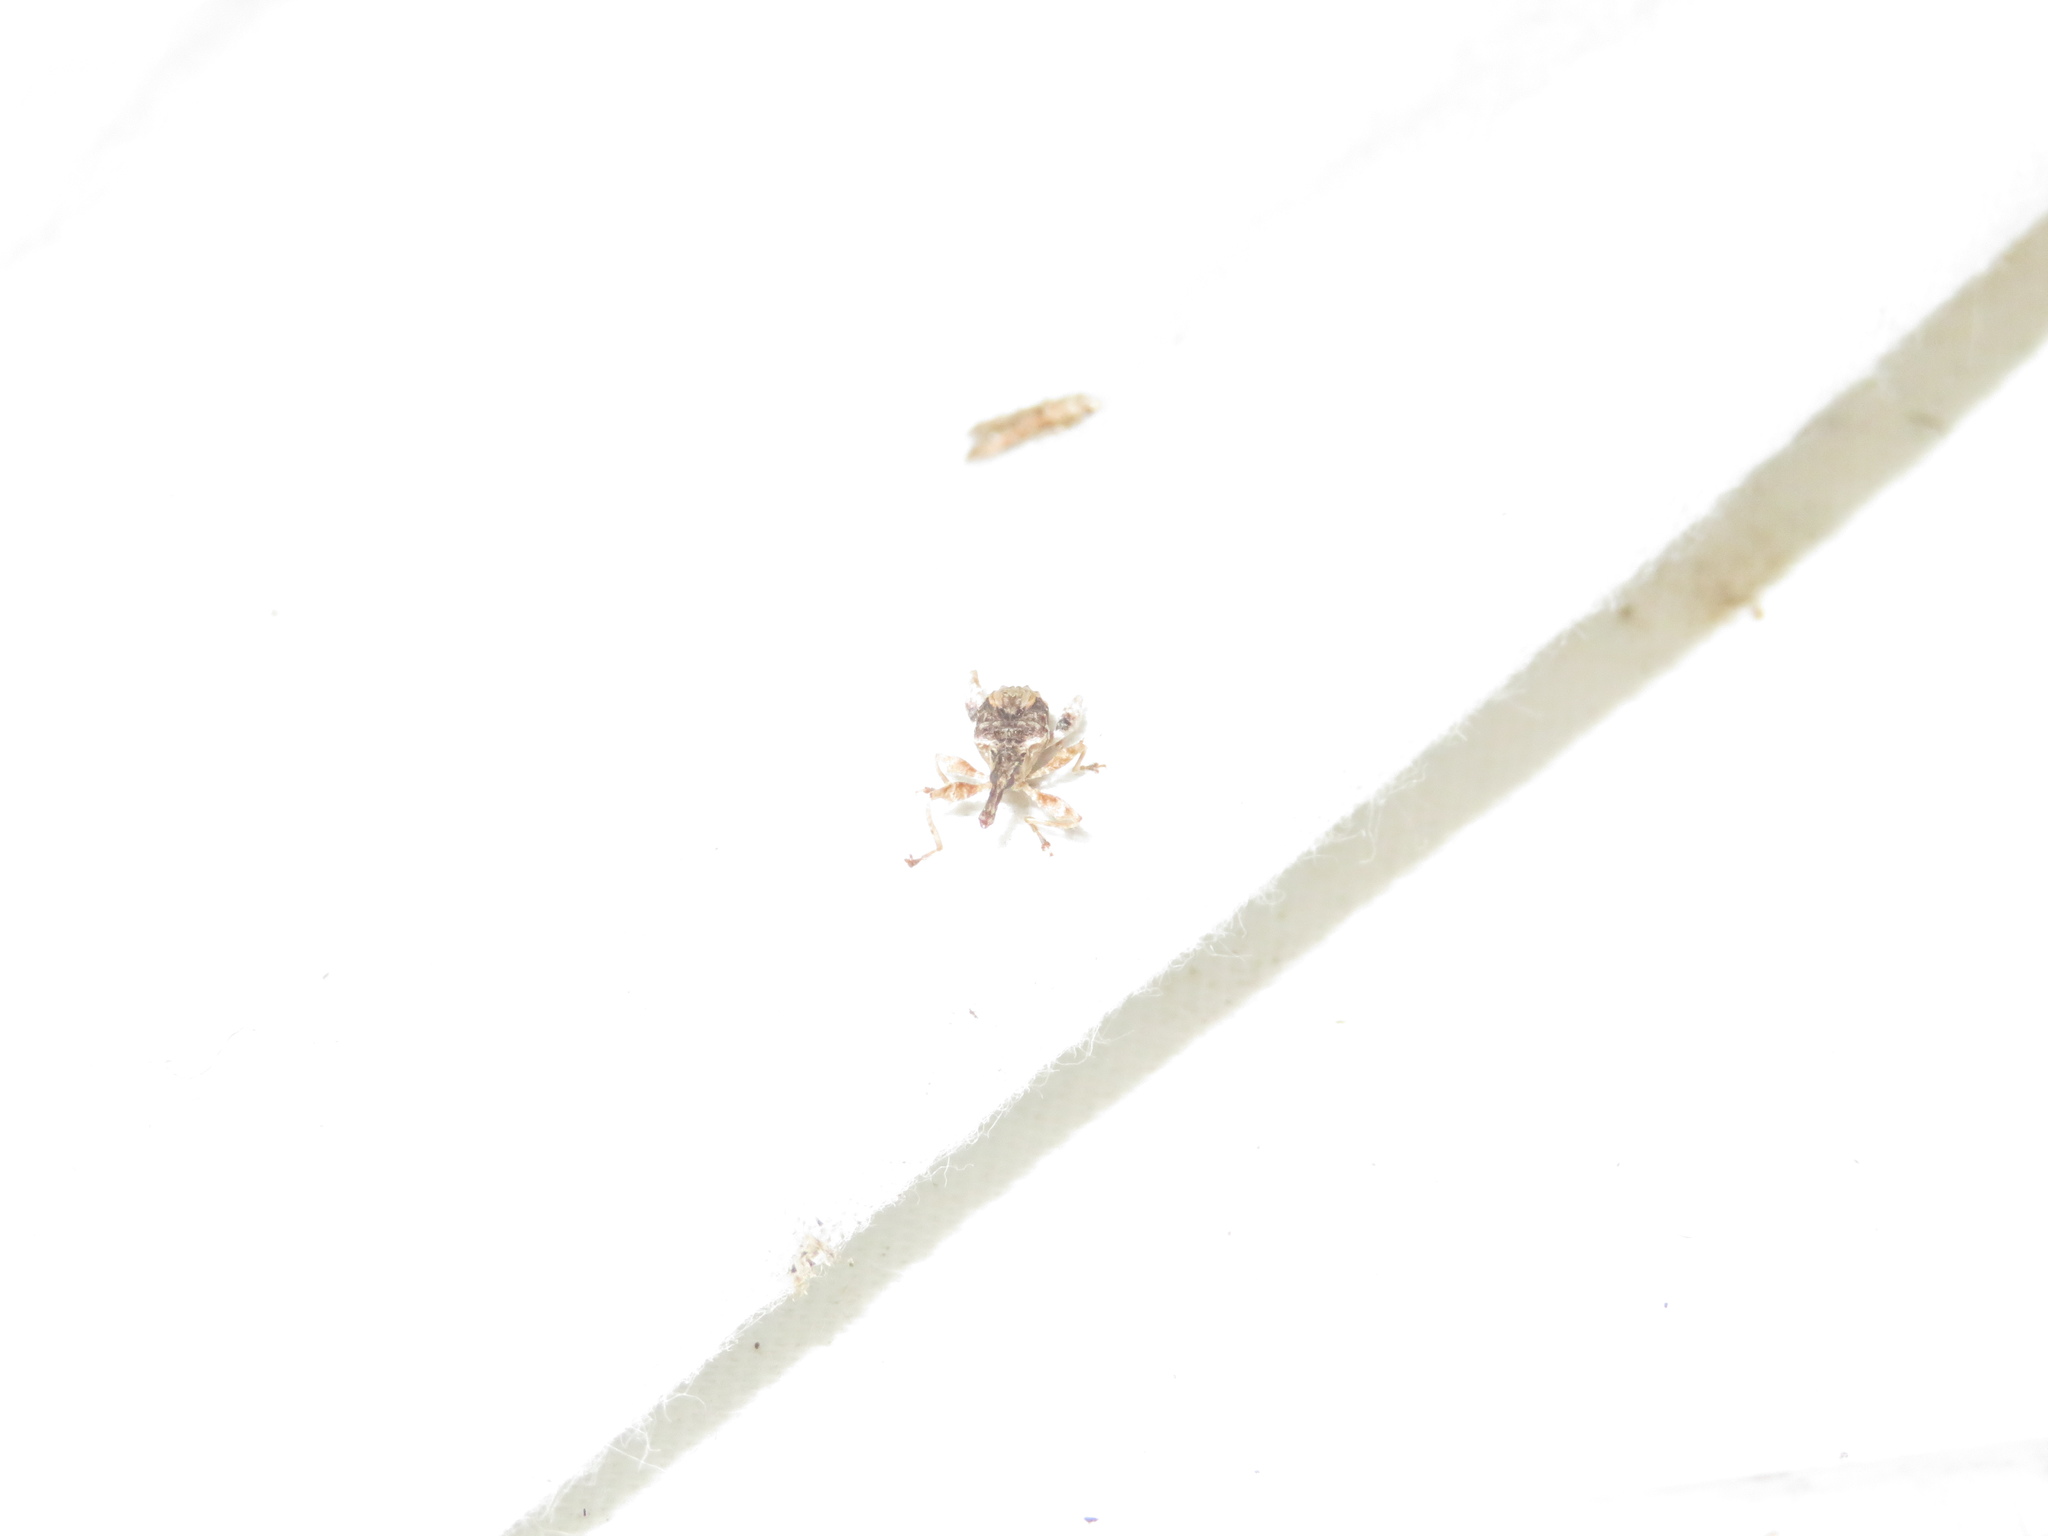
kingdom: Animalia
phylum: Arthropoda
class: Insecta
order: Coleoptera
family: Curculionidae
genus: Stephanorhynchus
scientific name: Stephanorhynchus curvipes
